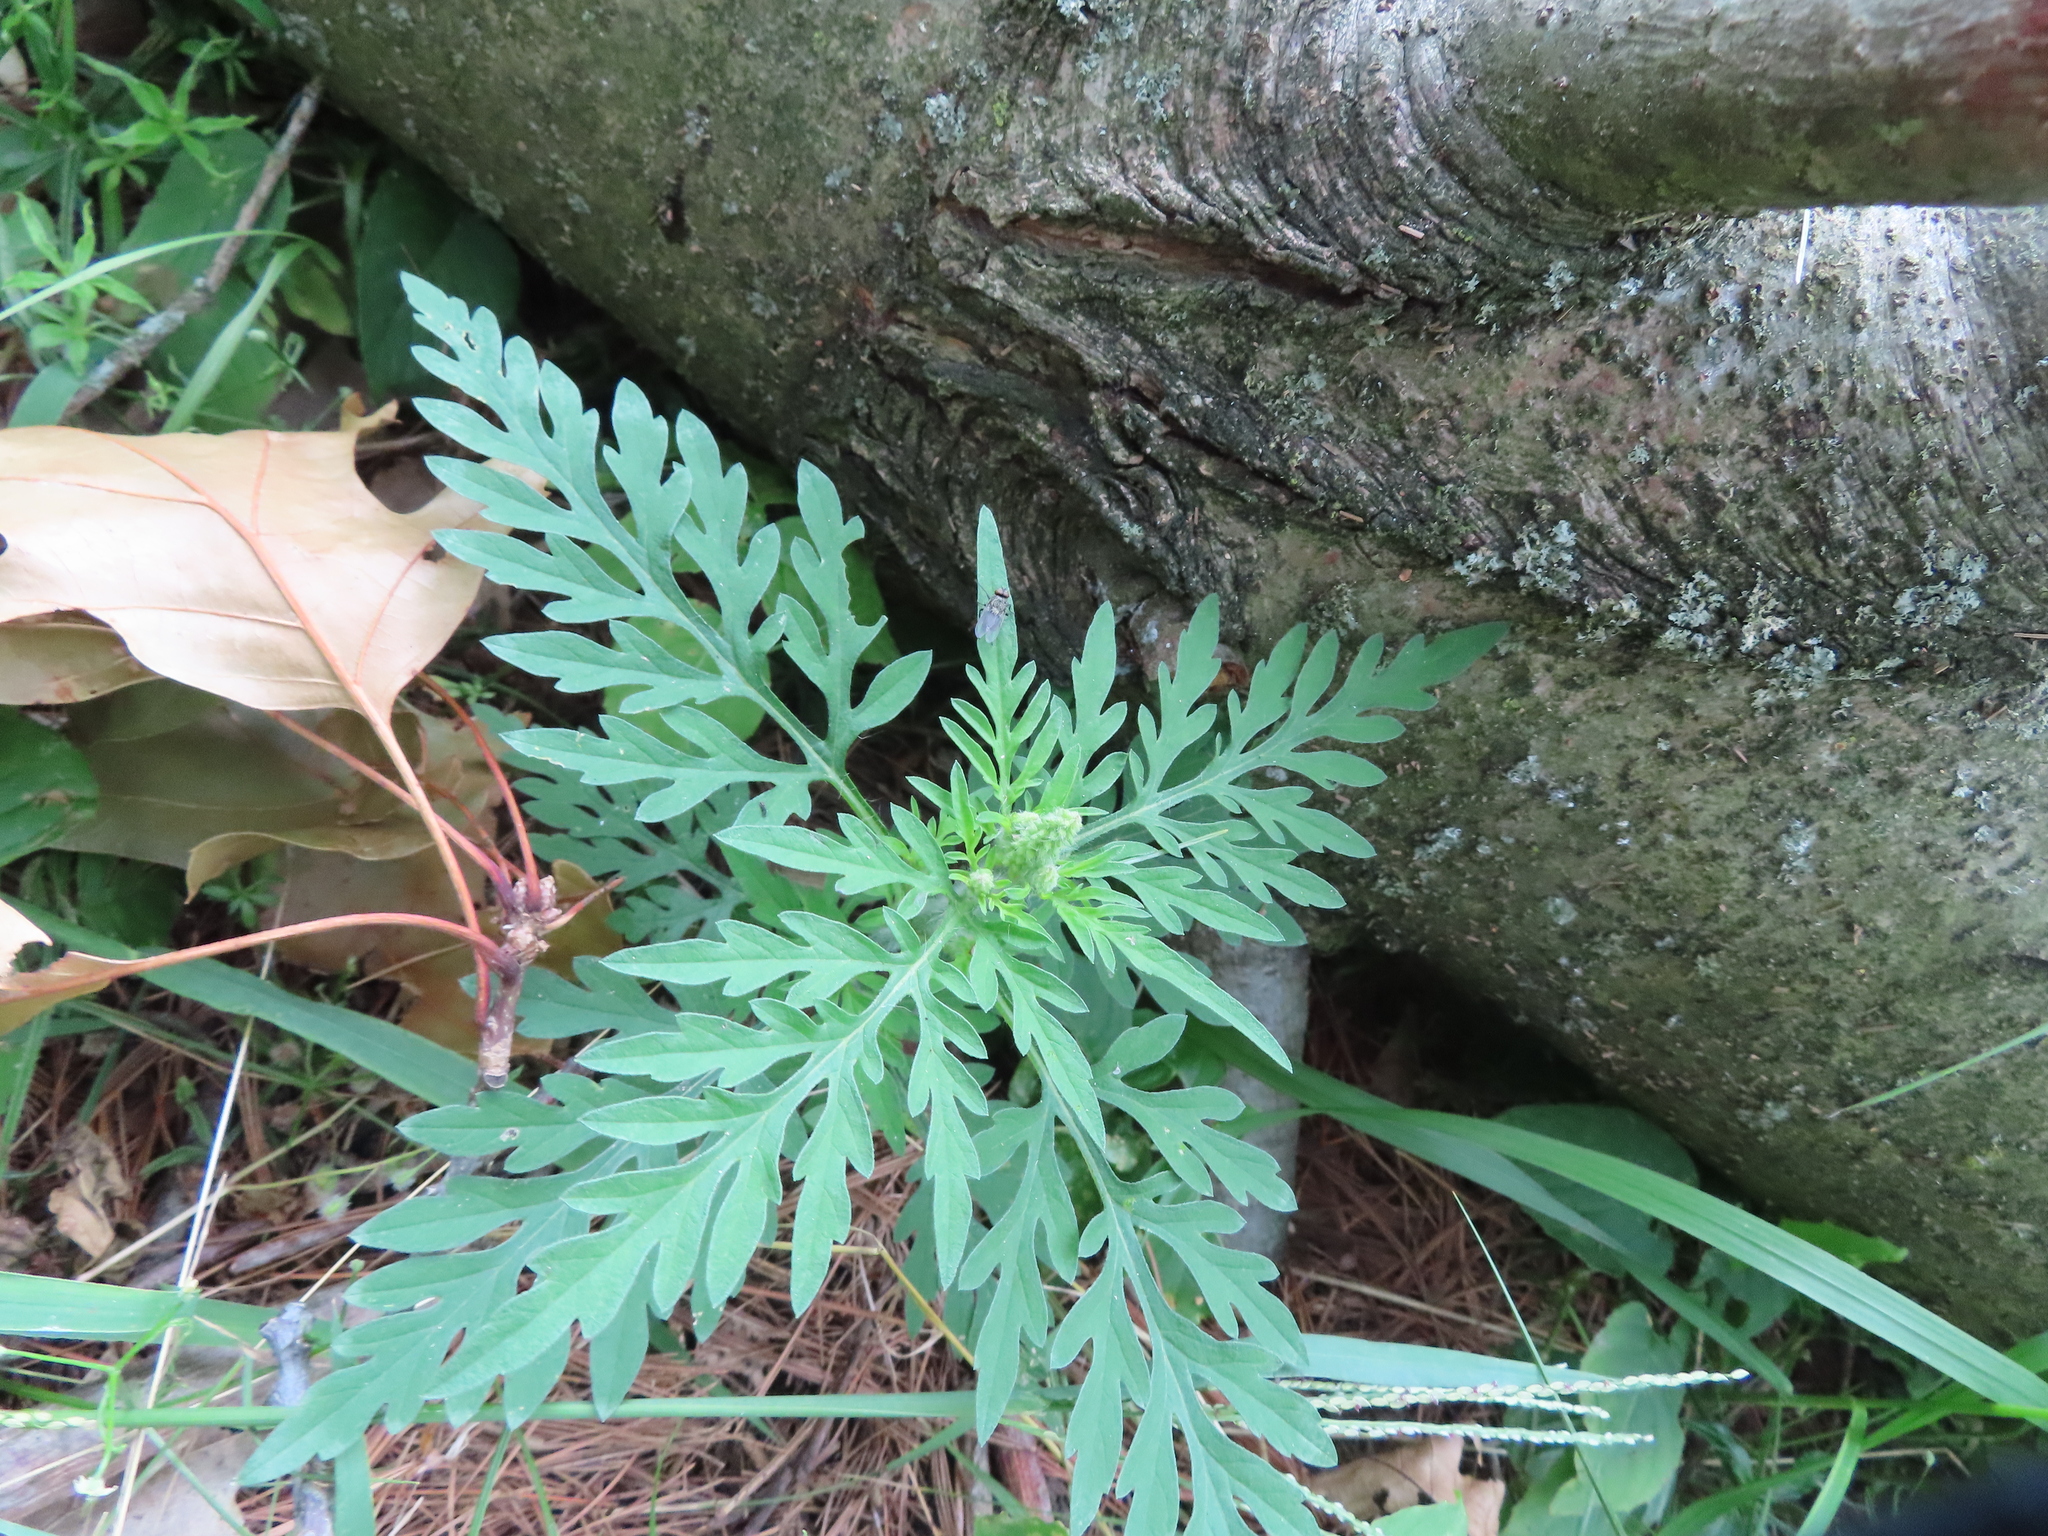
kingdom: Plantae
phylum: Tracheophyta
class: Magnoliopsida
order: Asterales
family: Asteraceae
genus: Ambrosia
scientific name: Ambrosia artemisiifolia
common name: Annual ragweed
